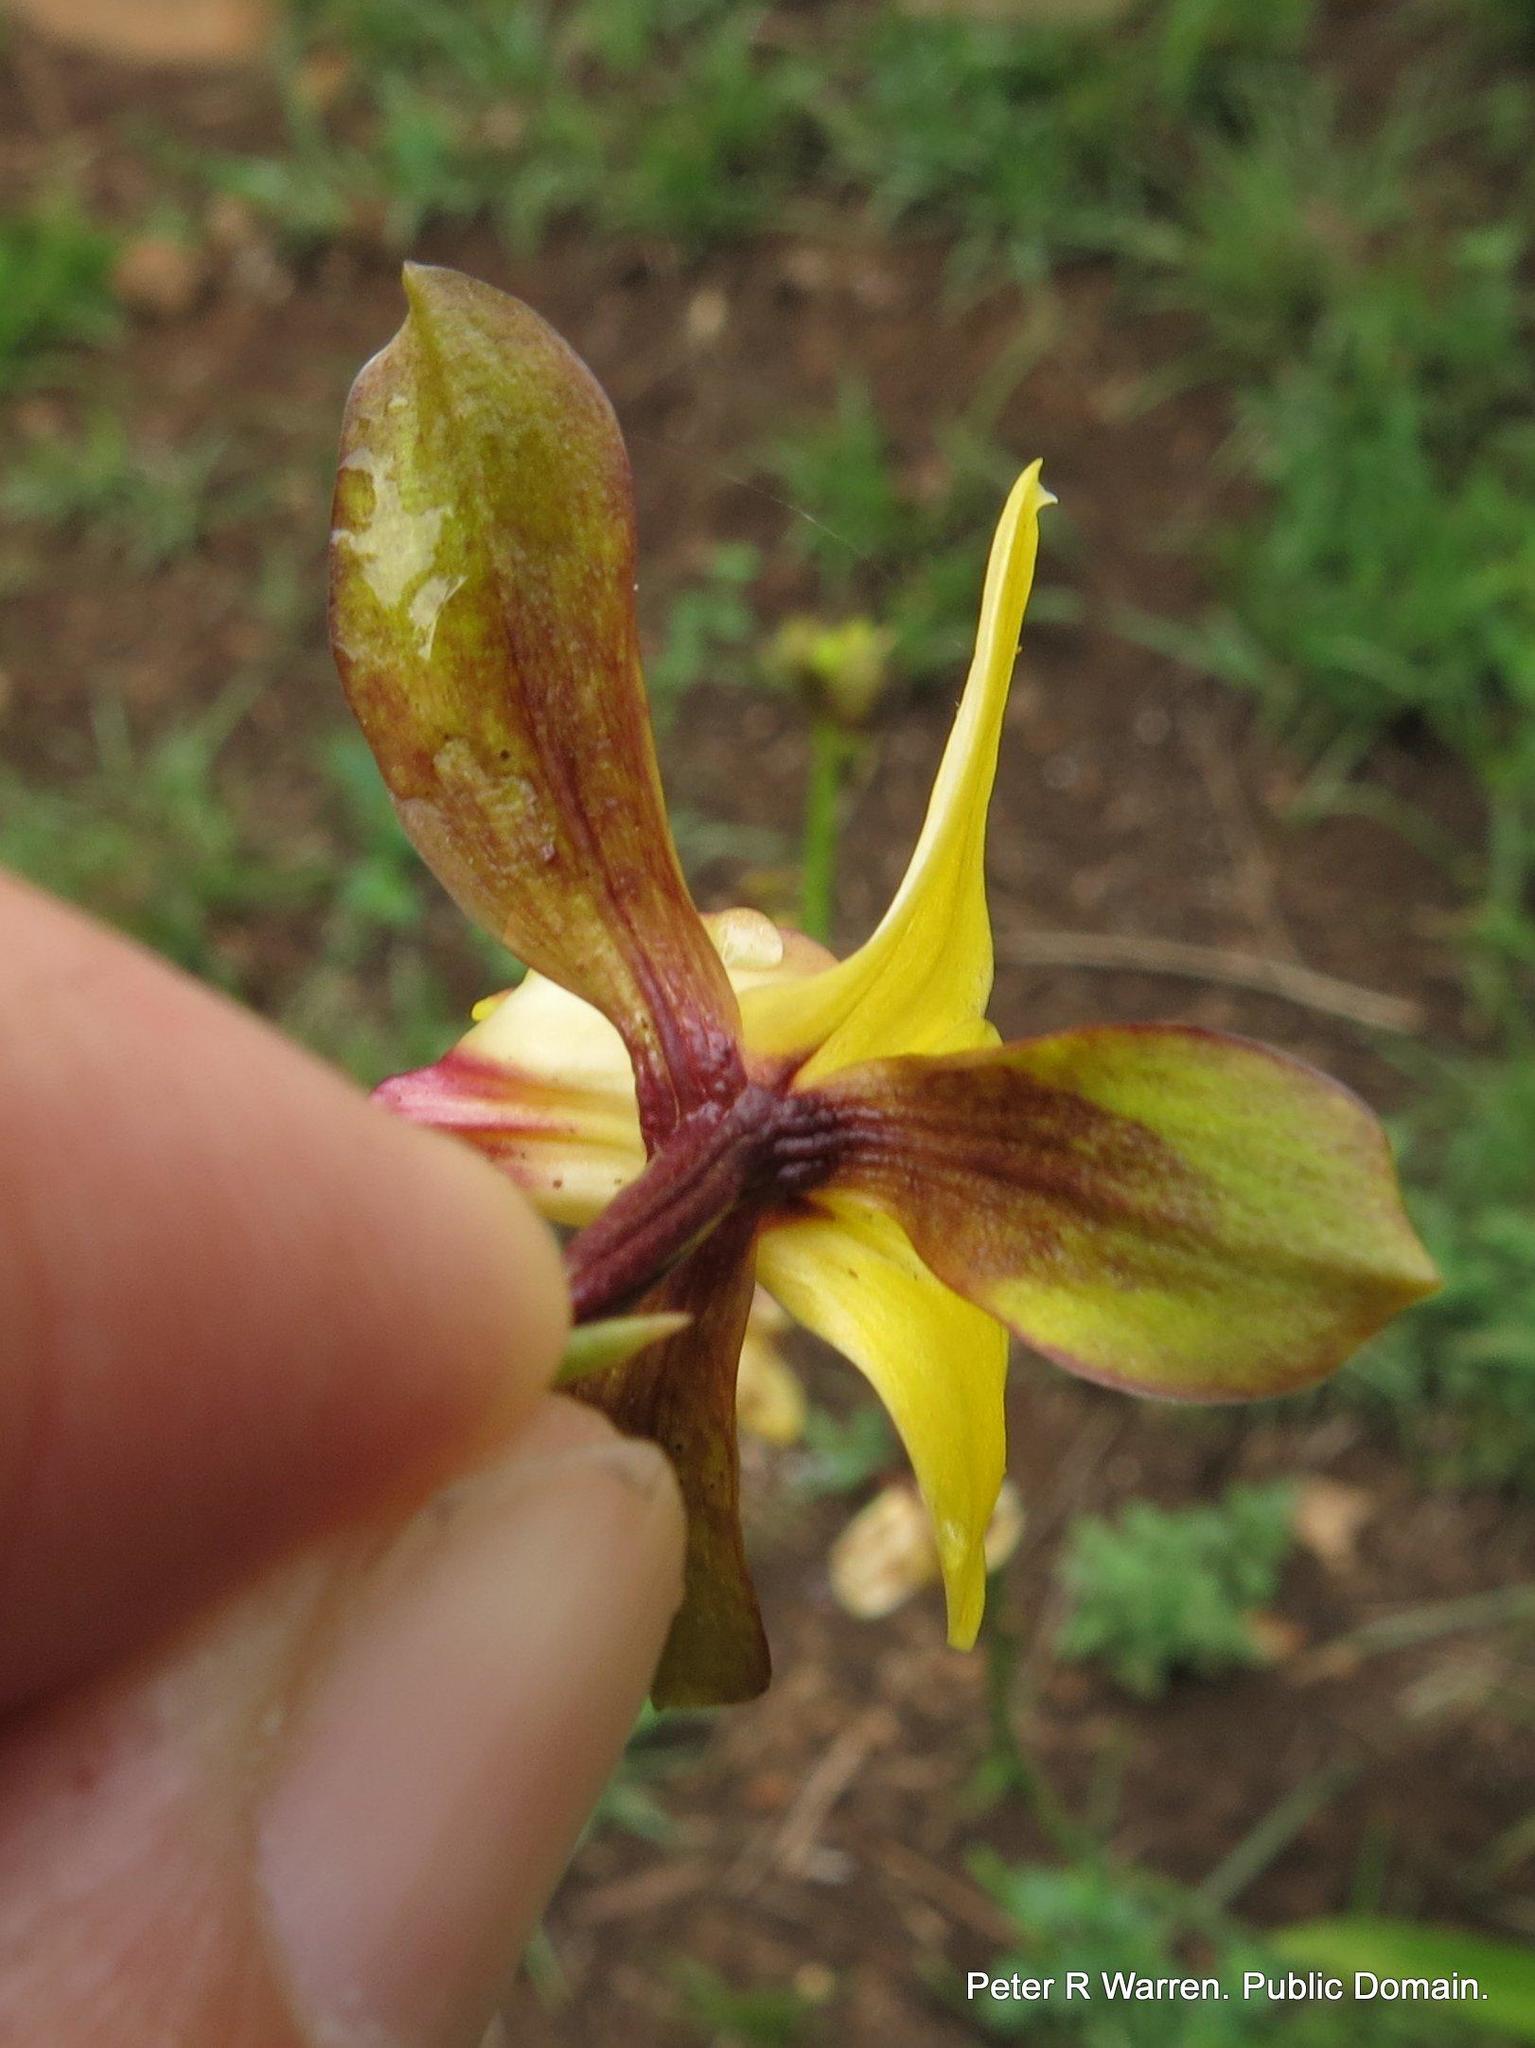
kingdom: Plantae
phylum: Tracheophyta
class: Liliopsida
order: Asparagales
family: Orchidaceae
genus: Eulophia
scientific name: Eulophia streptopetala
